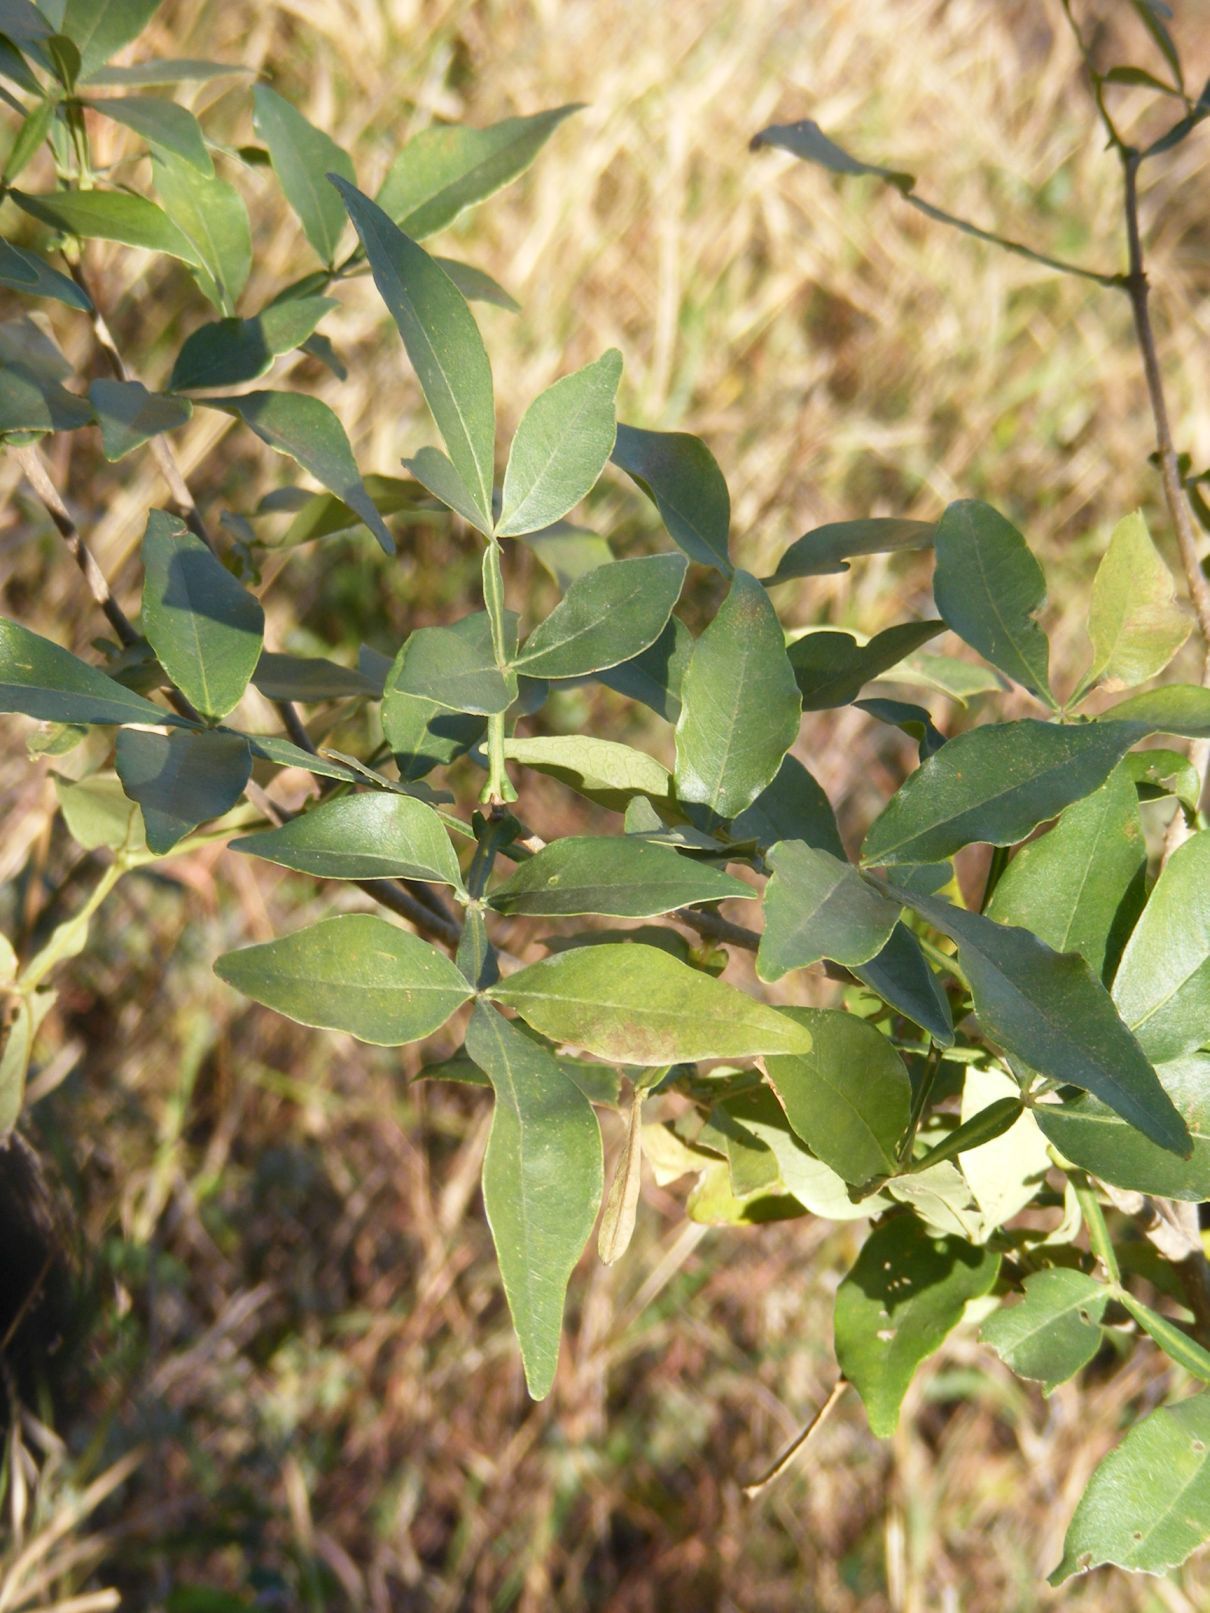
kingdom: Plantae
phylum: Tracheophyta
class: Magnoliopsida
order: Lamiales
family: Oleaceae
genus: Schrebera
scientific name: Schrebera alata
